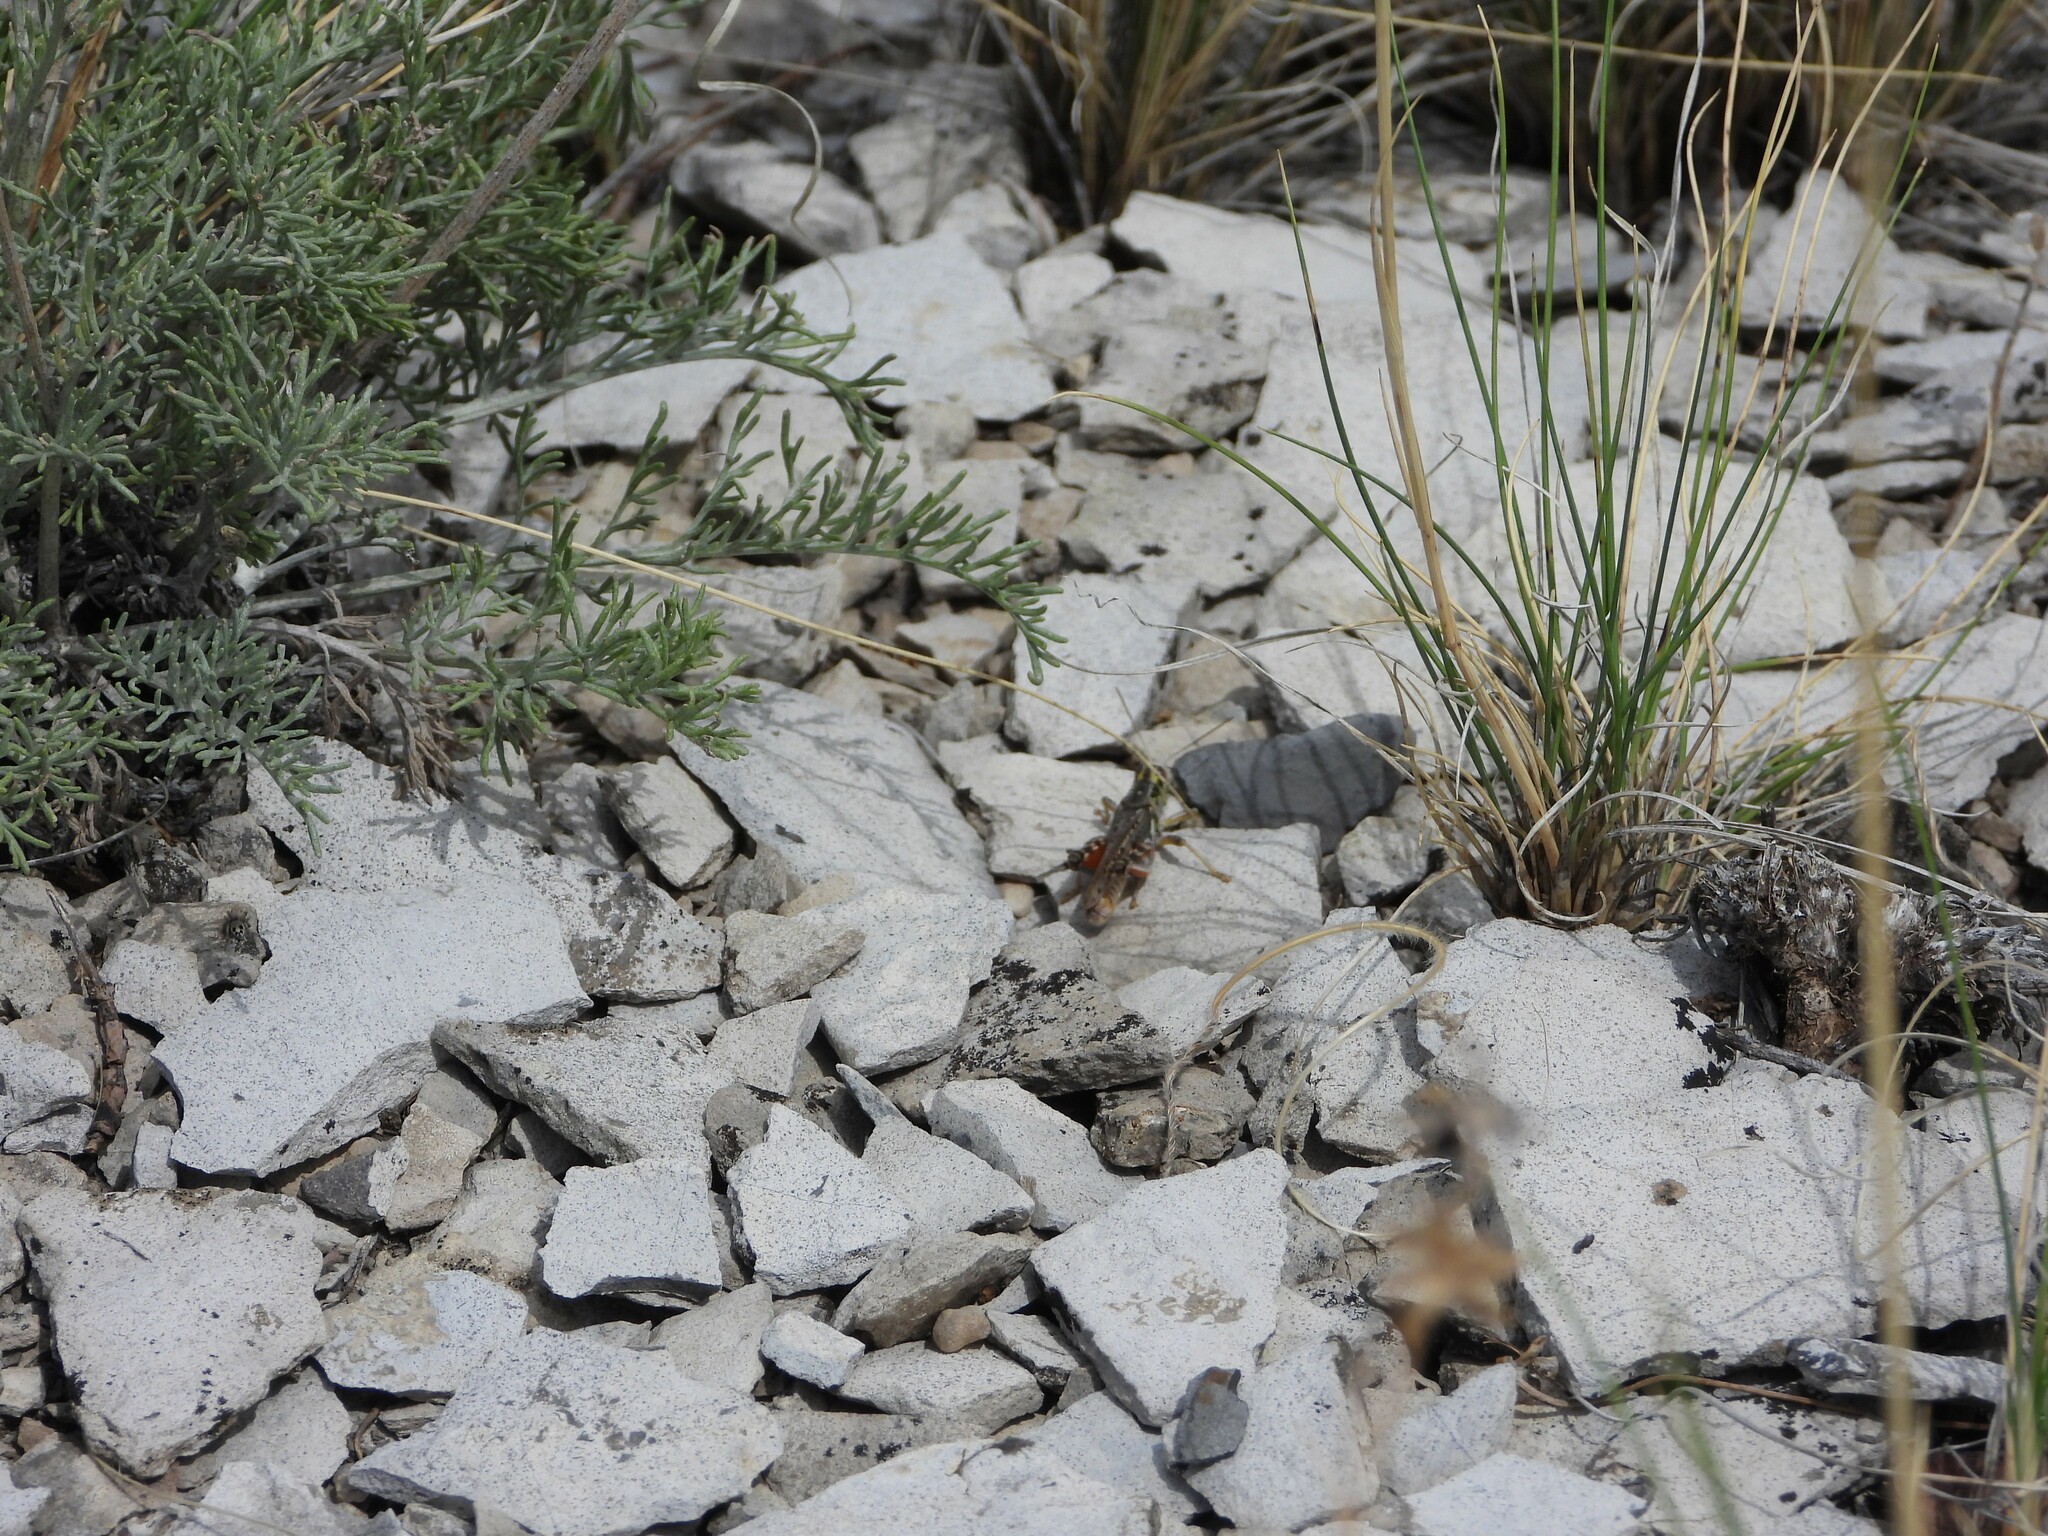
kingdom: Animalia
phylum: Arthropoda
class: Insecta
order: Orthoptera
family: Acrididae
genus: Melanoplus
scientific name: Melanoplus occidentalis
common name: Flabellate grasshopper
